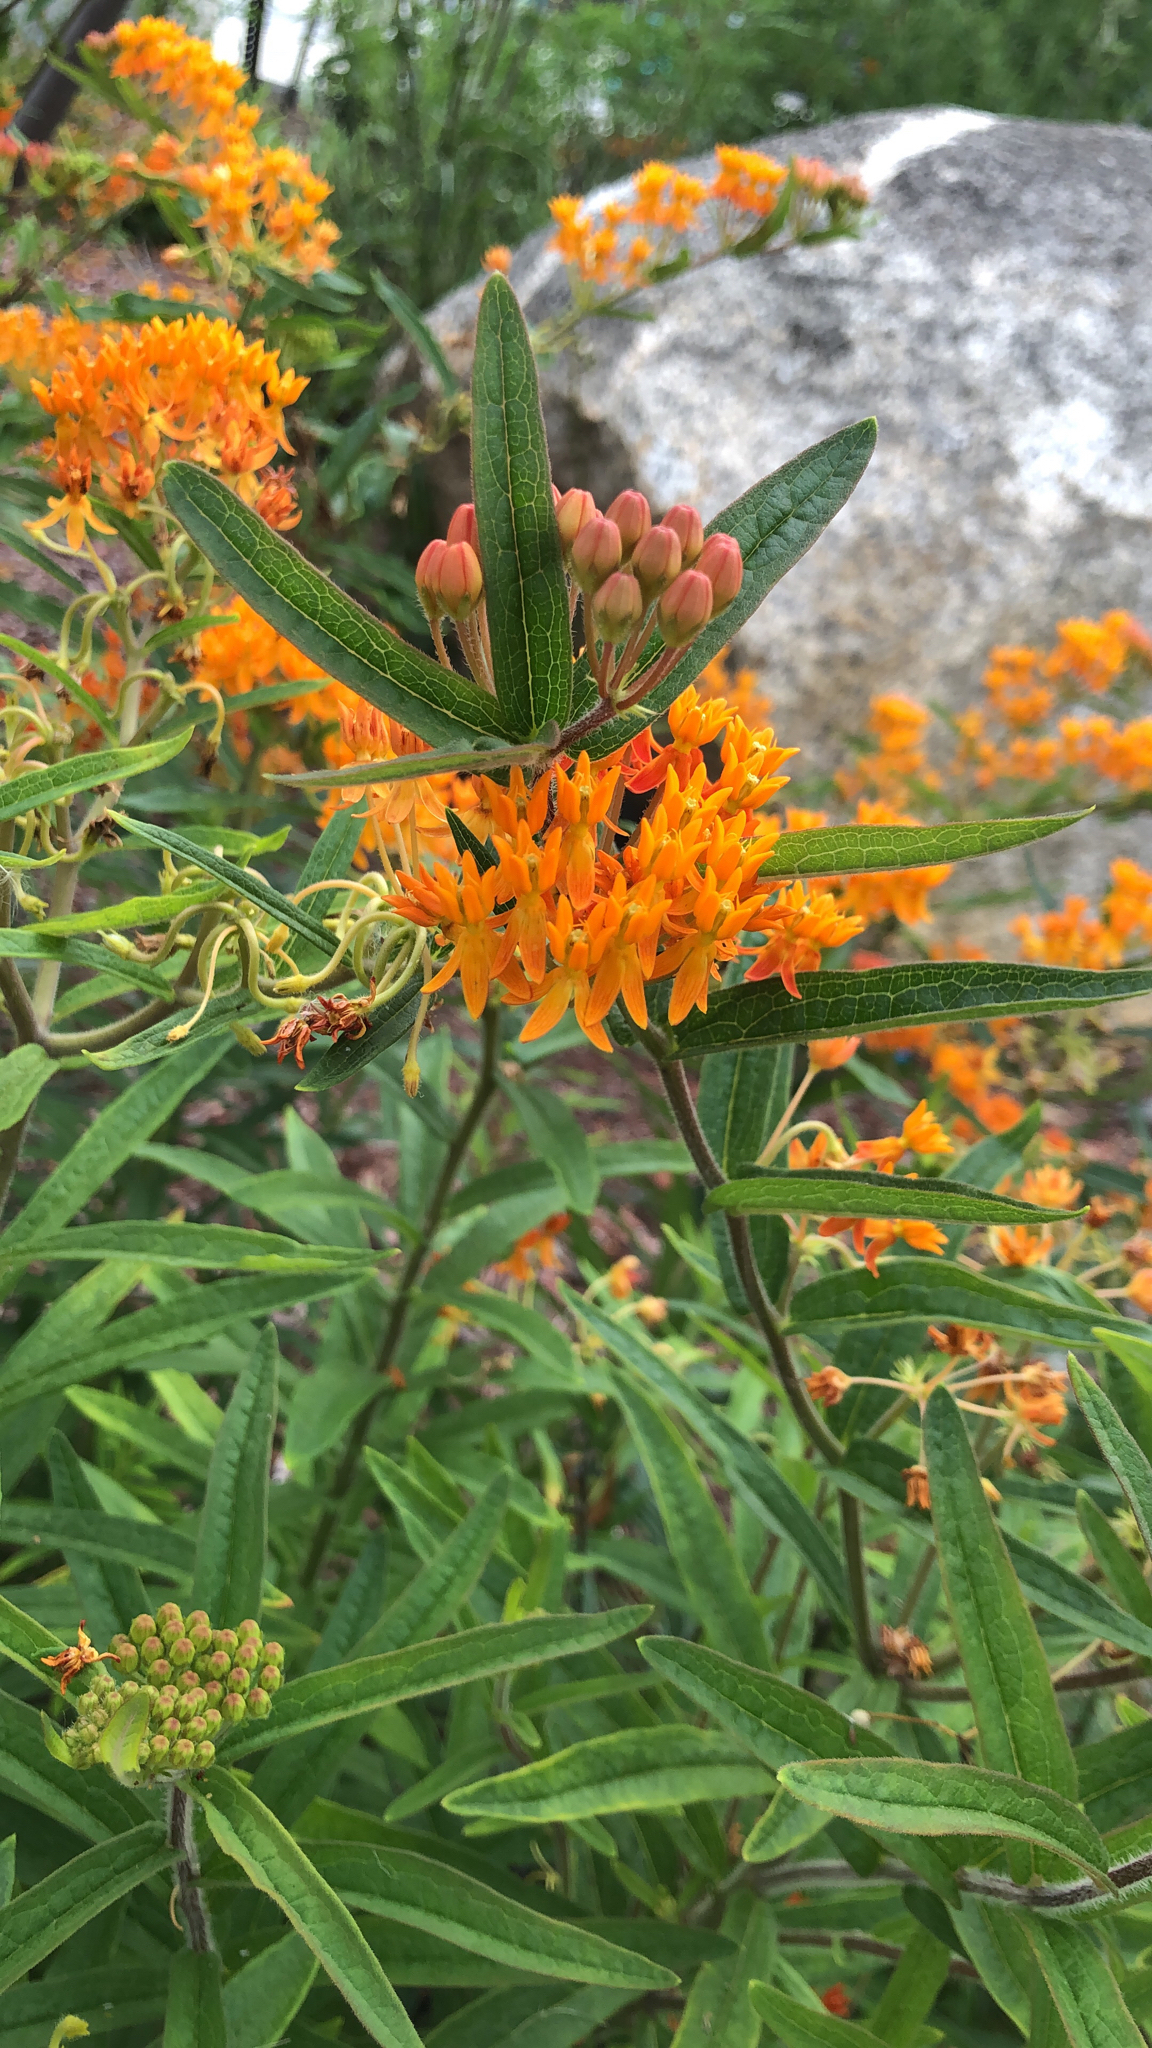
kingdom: Plantae
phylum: Tracheophyta
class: Magnoliopsida
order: Gentianales
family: Apocynaceae
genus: Asclepias
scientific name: Asclepias tuberosa
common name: Butterfly milkweed
